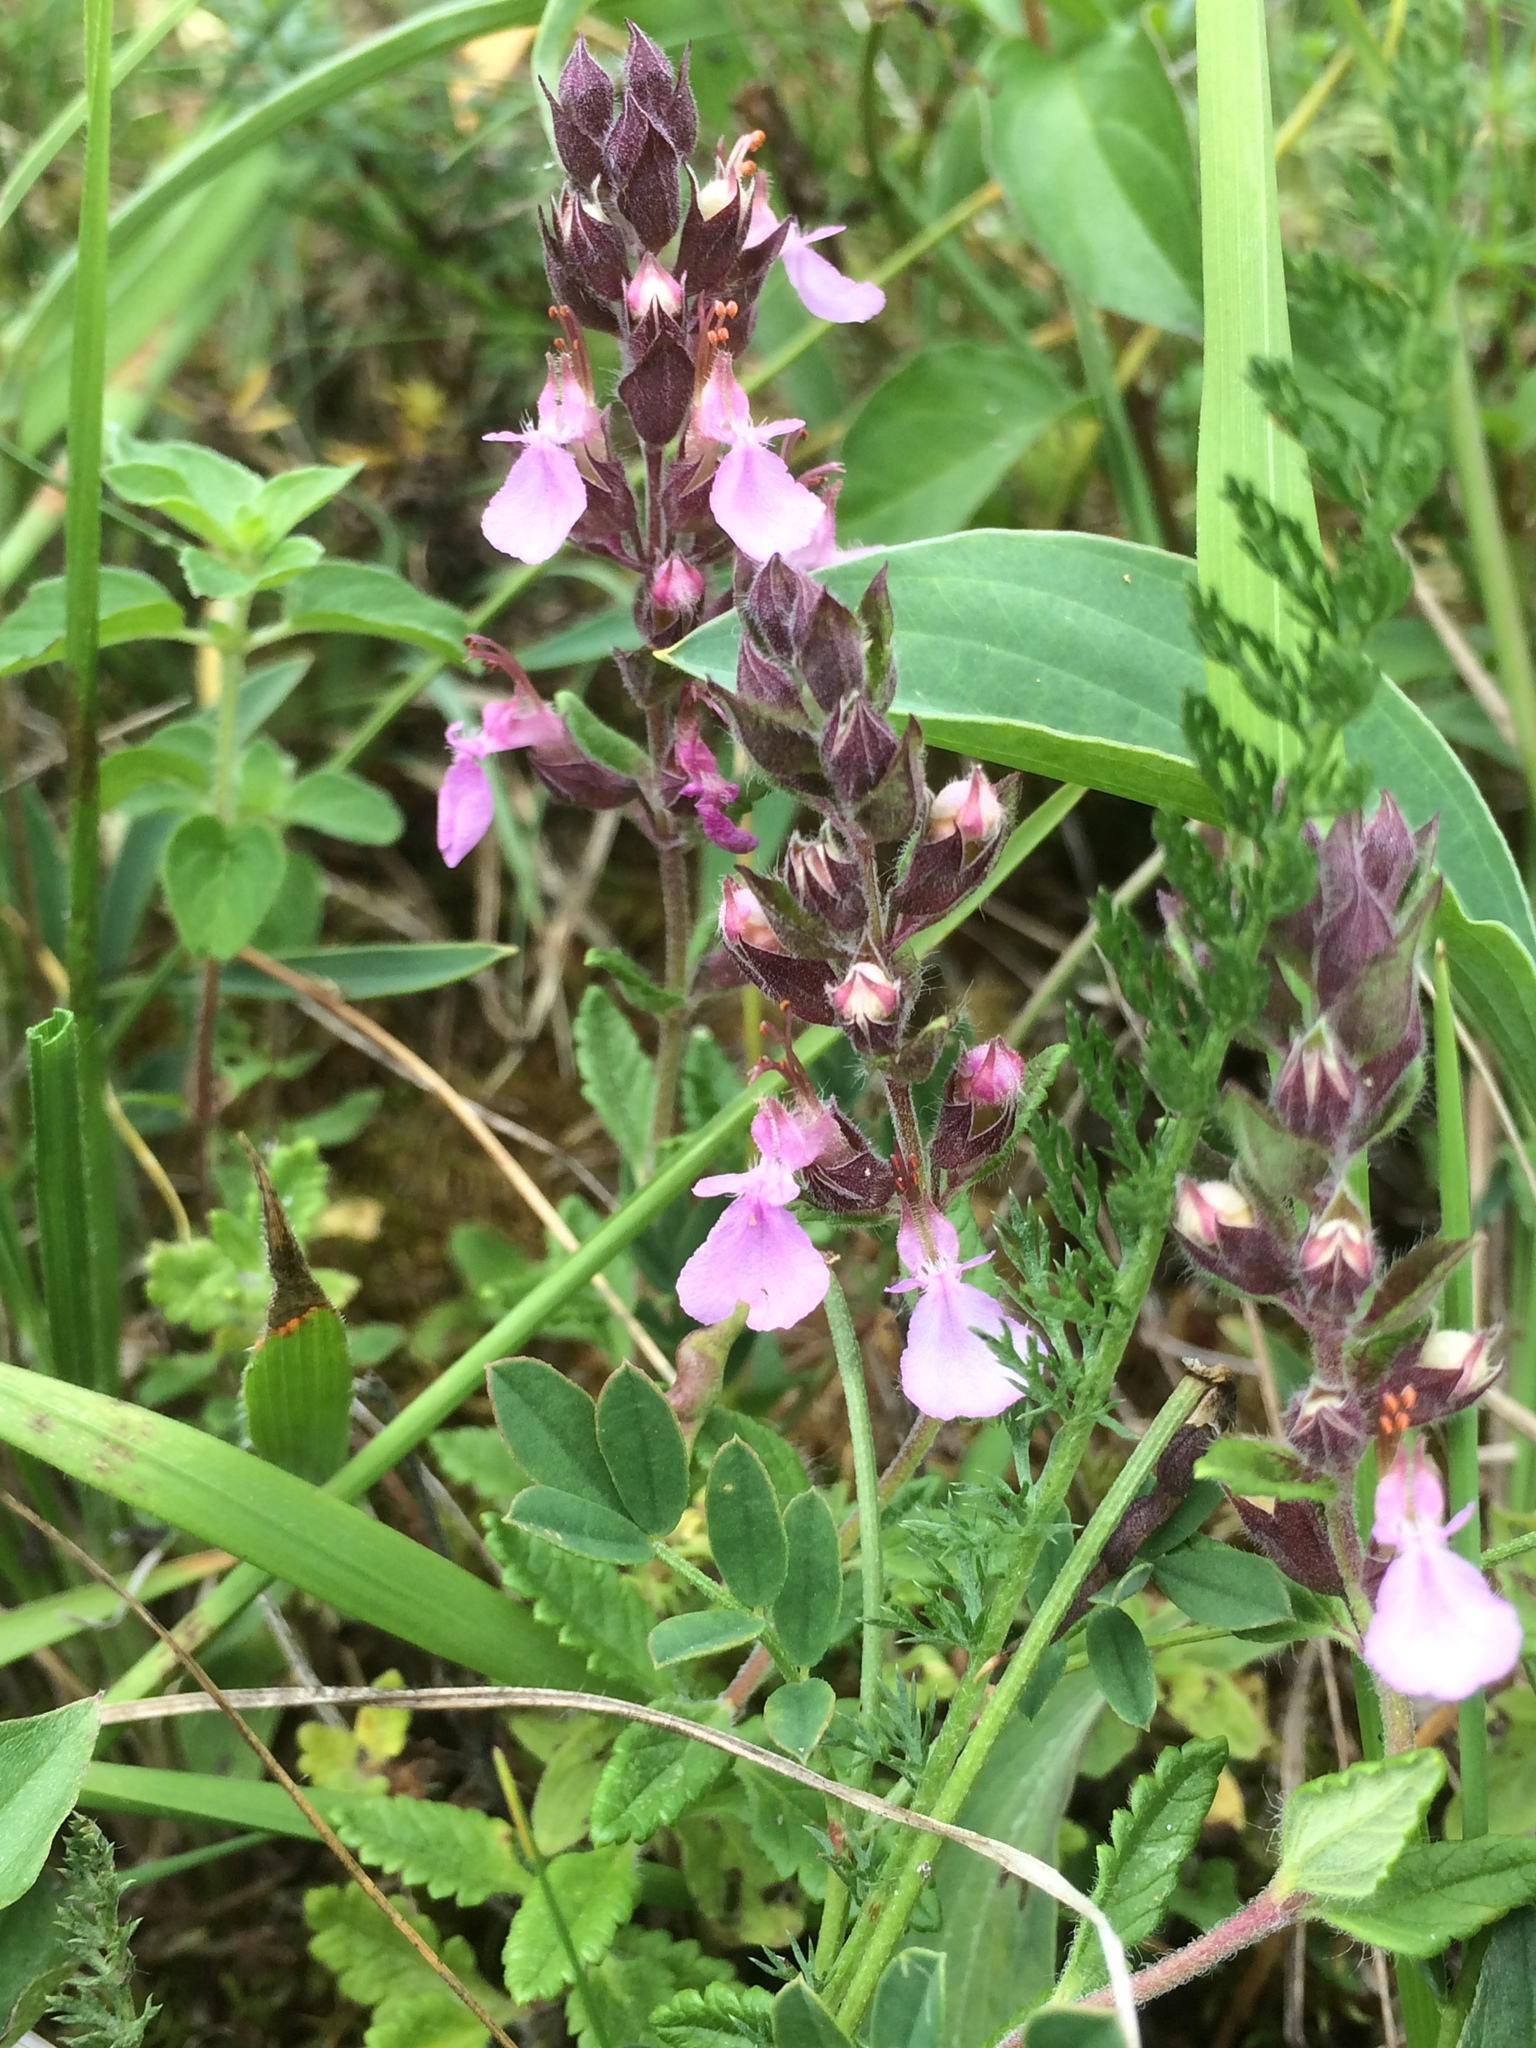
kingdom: Plantae
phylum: Tracheophyta
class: Magnoliopsida
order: Lamiales
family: Lamiaceae
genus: Teucrium
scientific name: Teucrium chamaedrys
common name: Wall germander
